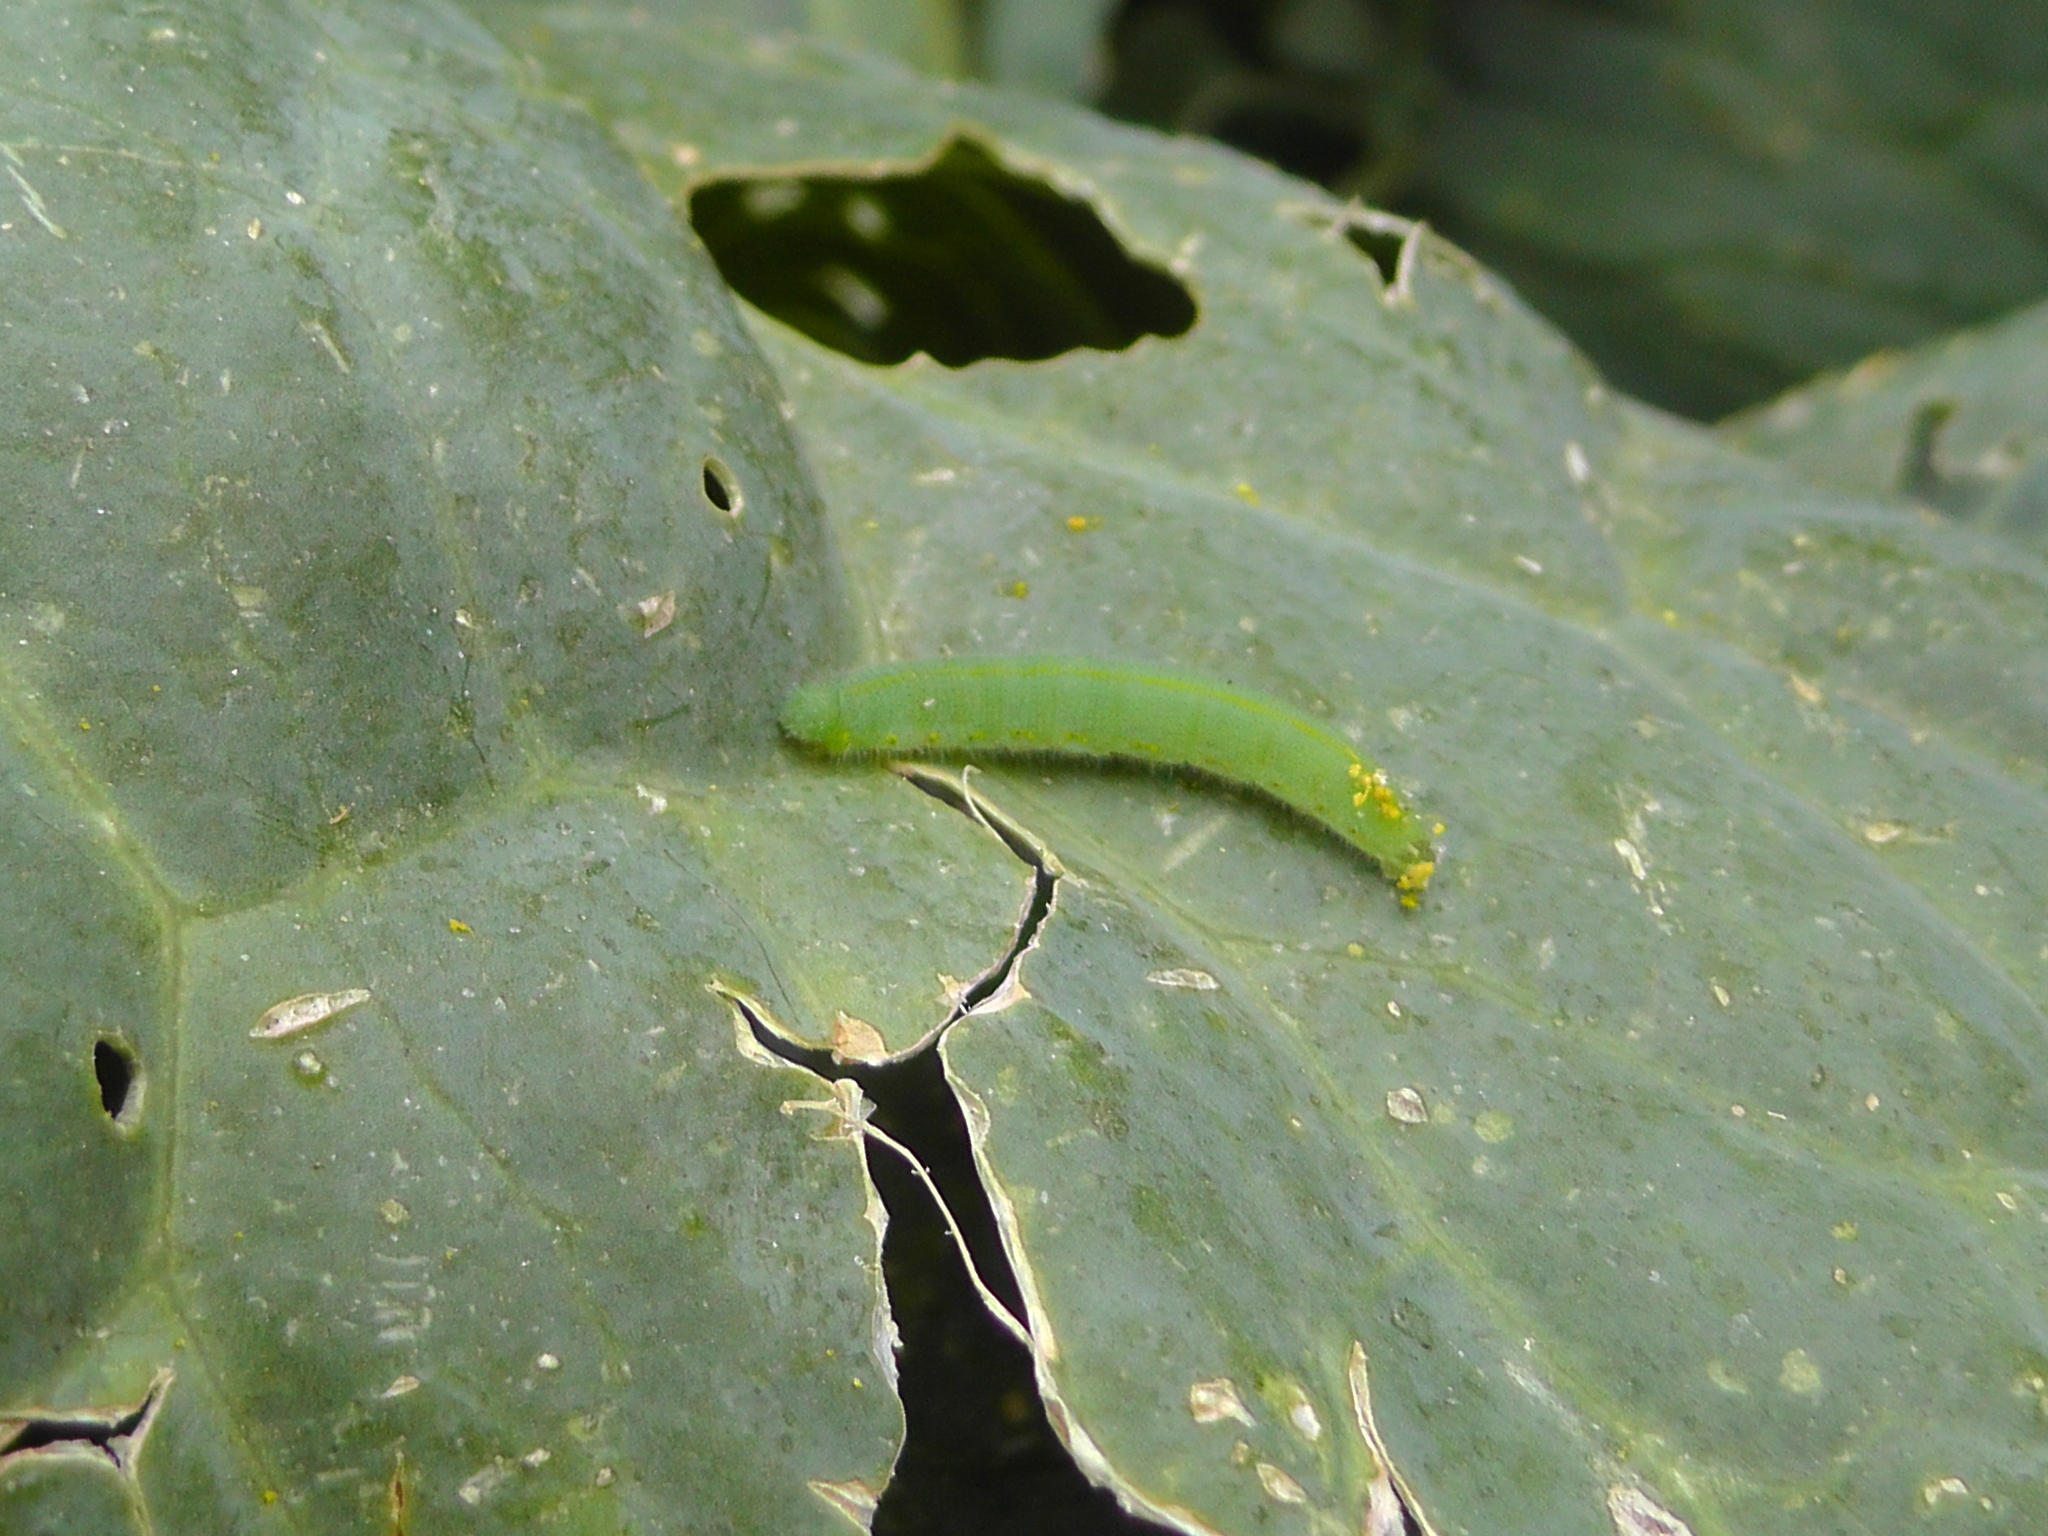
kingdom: Animalia
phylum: Arthropoda
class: Insecta
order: Lepidoptera
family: Pieridae
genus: Pieris
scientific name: Pieris rapae
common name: Small white
